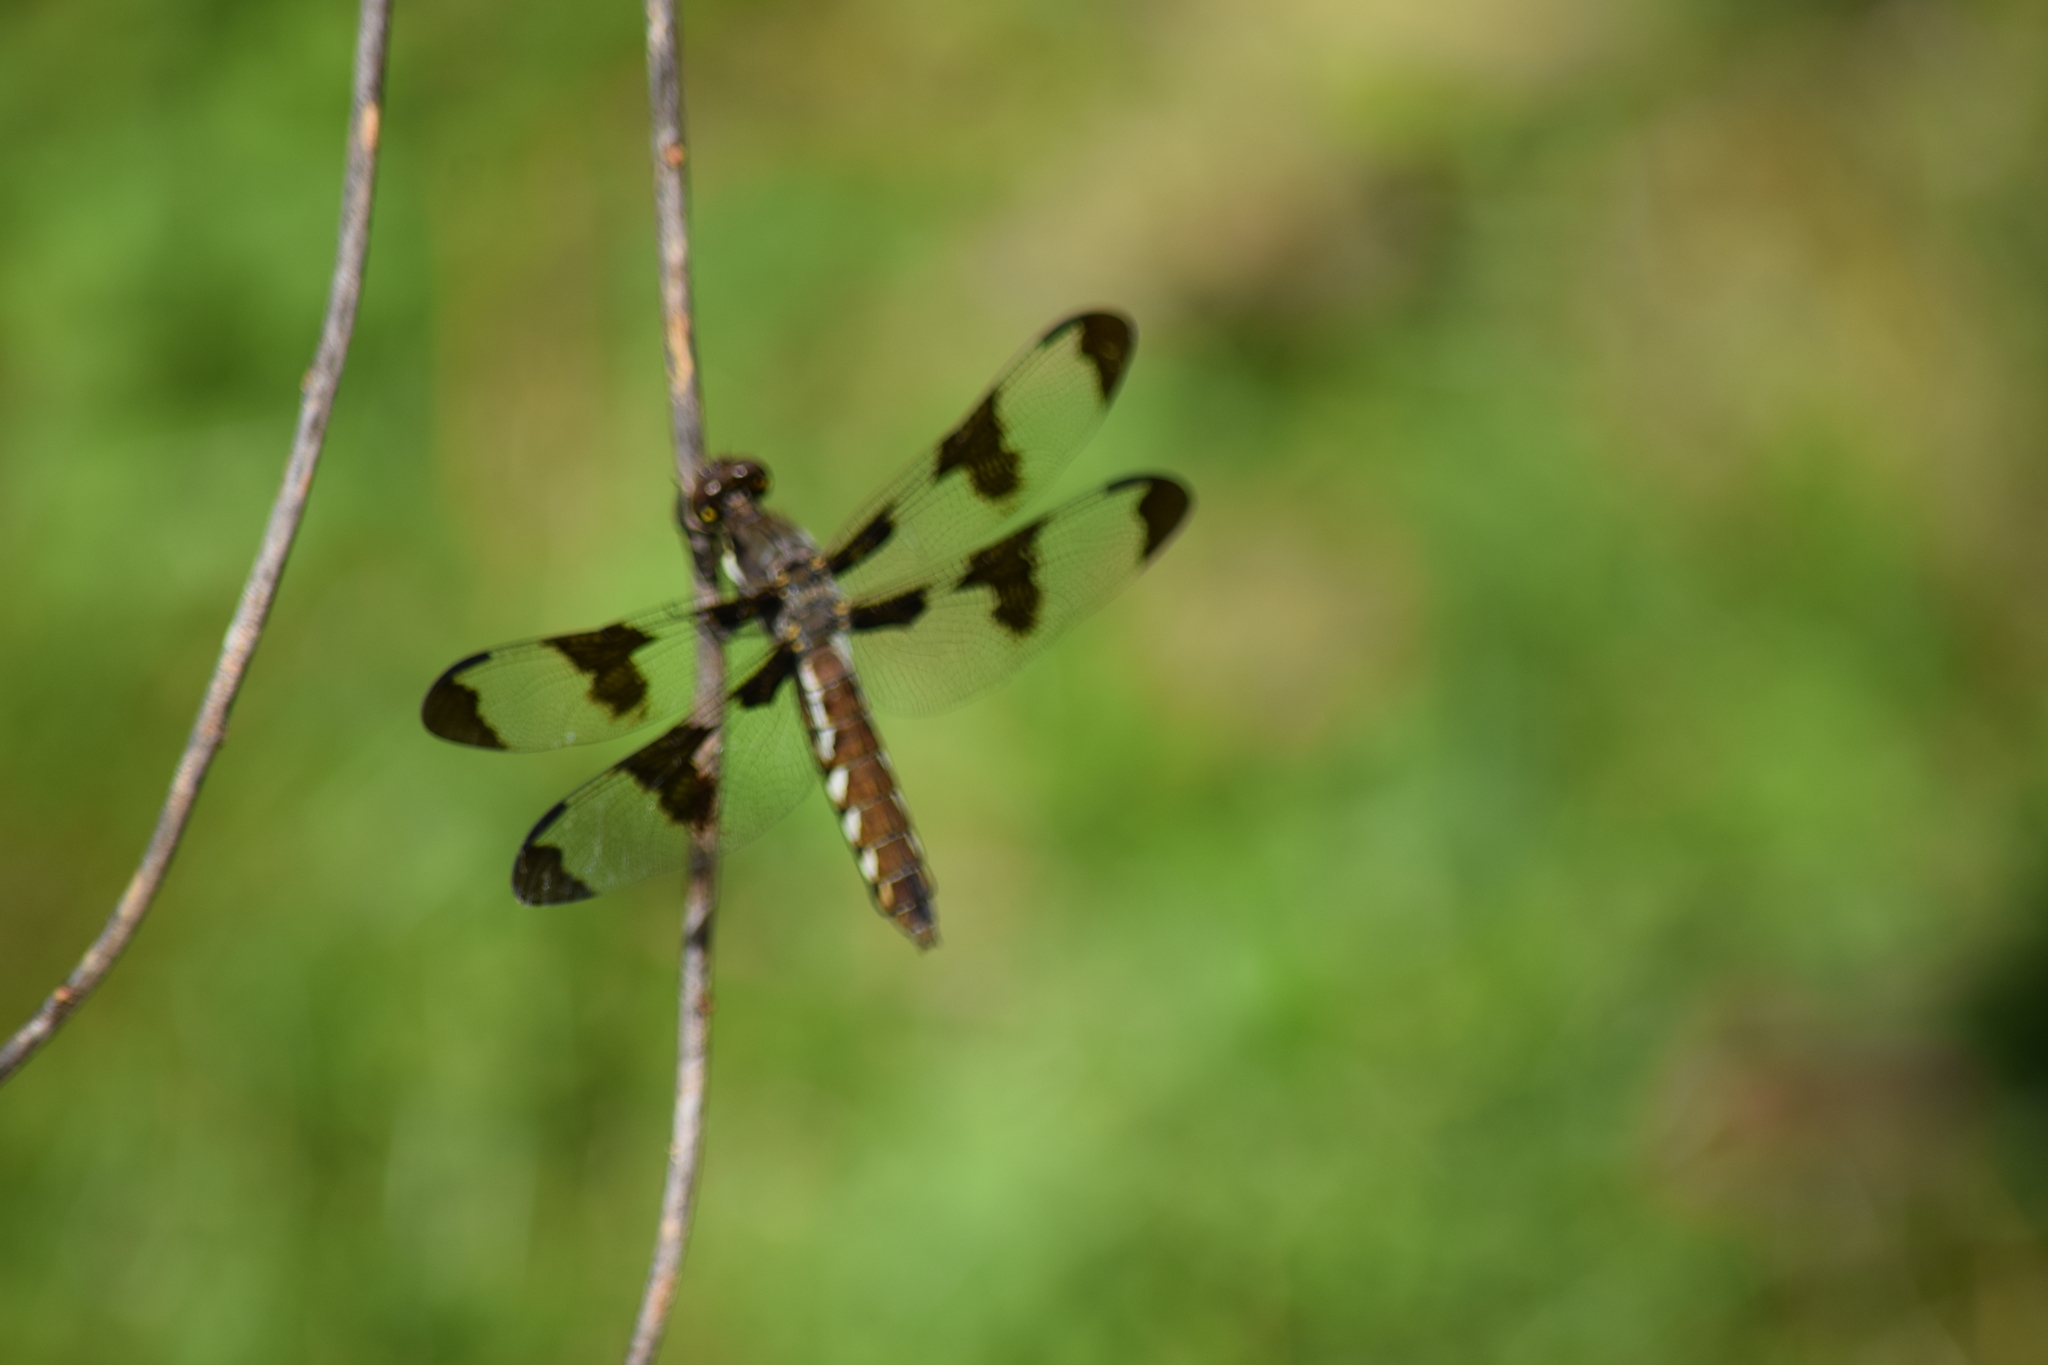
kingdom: Animalia
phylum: Arthropoda
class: Insecta
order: Odonata
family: Libellulidae
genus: Plathemis
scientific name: Plathemis lydia
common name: Common whitetail
